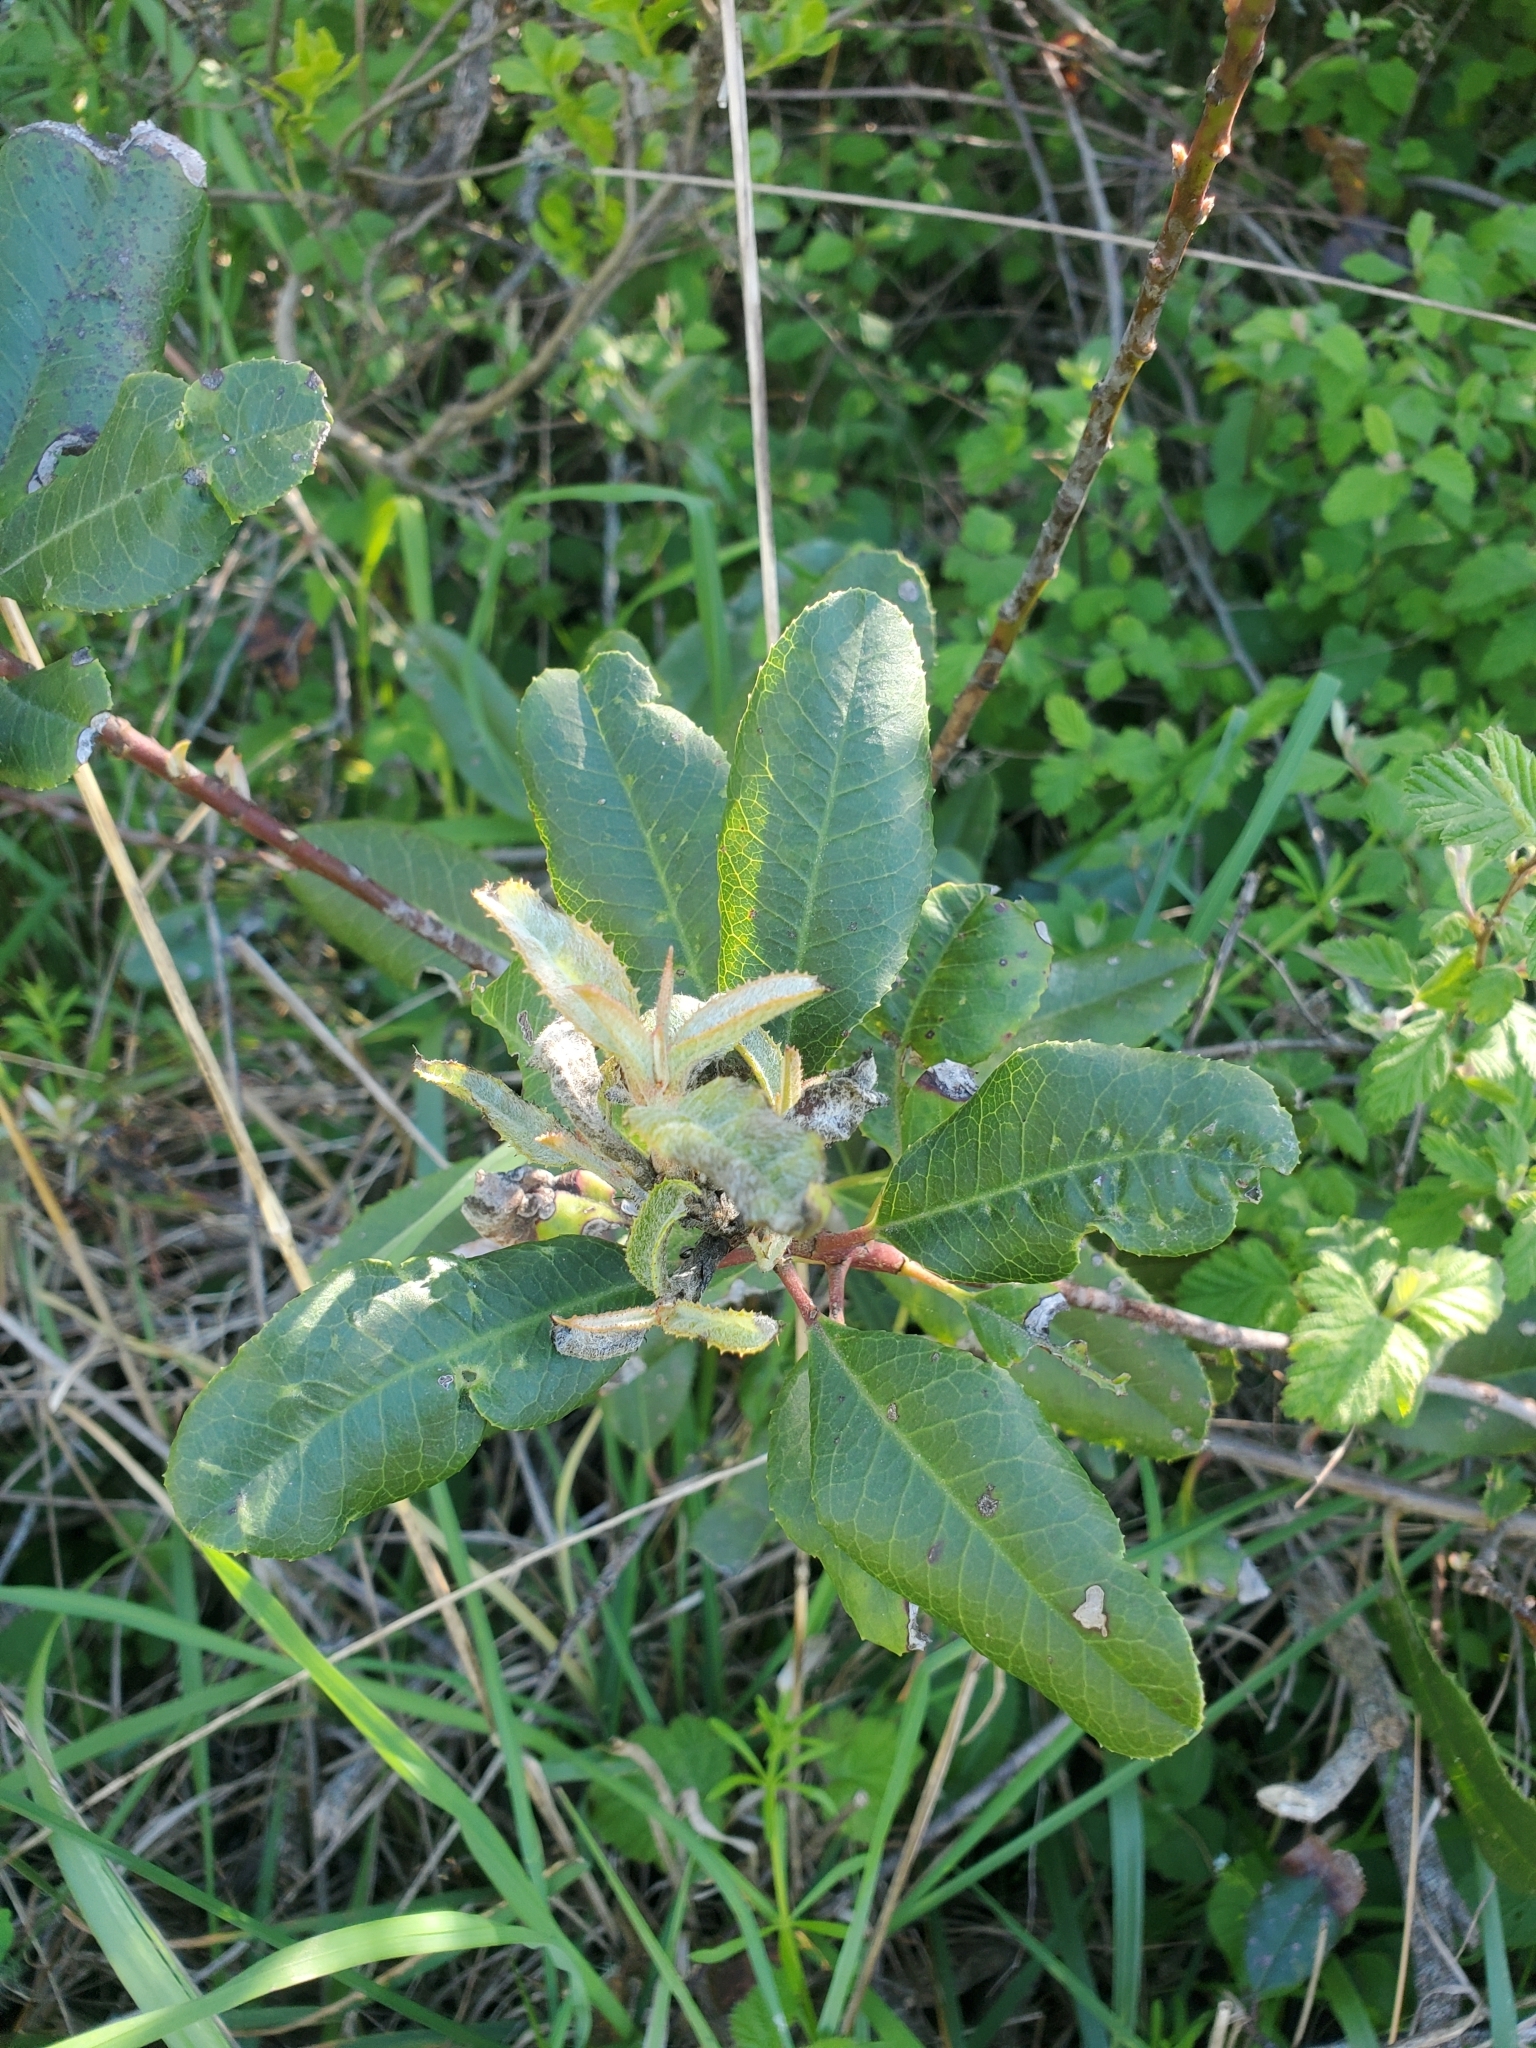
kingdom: Plantae
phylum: Tracheophyta
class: Magnoliopsida
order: Rosales
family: Rosaceae
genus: Heteromeles
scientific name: Heteromeles arbutifolia
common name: California-holly
